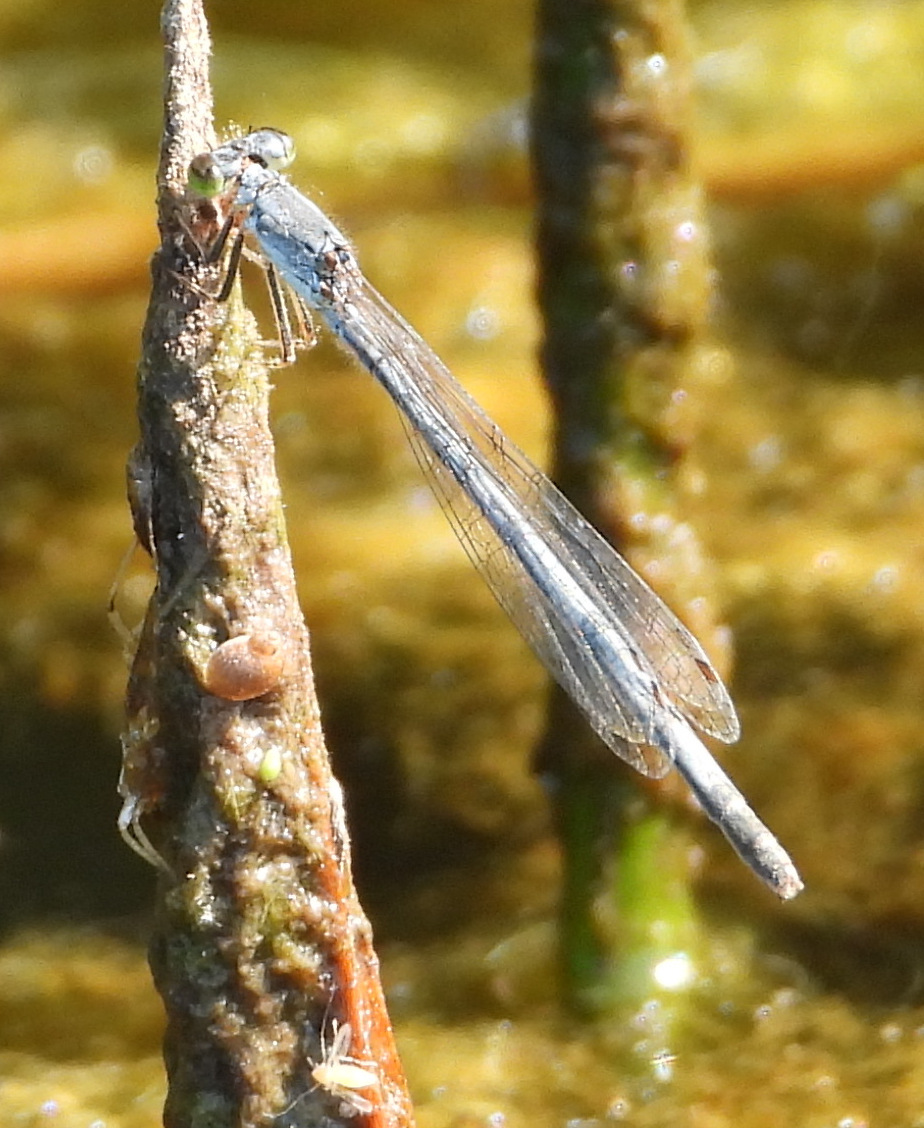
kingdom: Animalia
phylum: Arthropoda
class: Insecta
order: Odonata
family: Coenagrionidae
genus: Ischnura
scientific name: Ischnura
